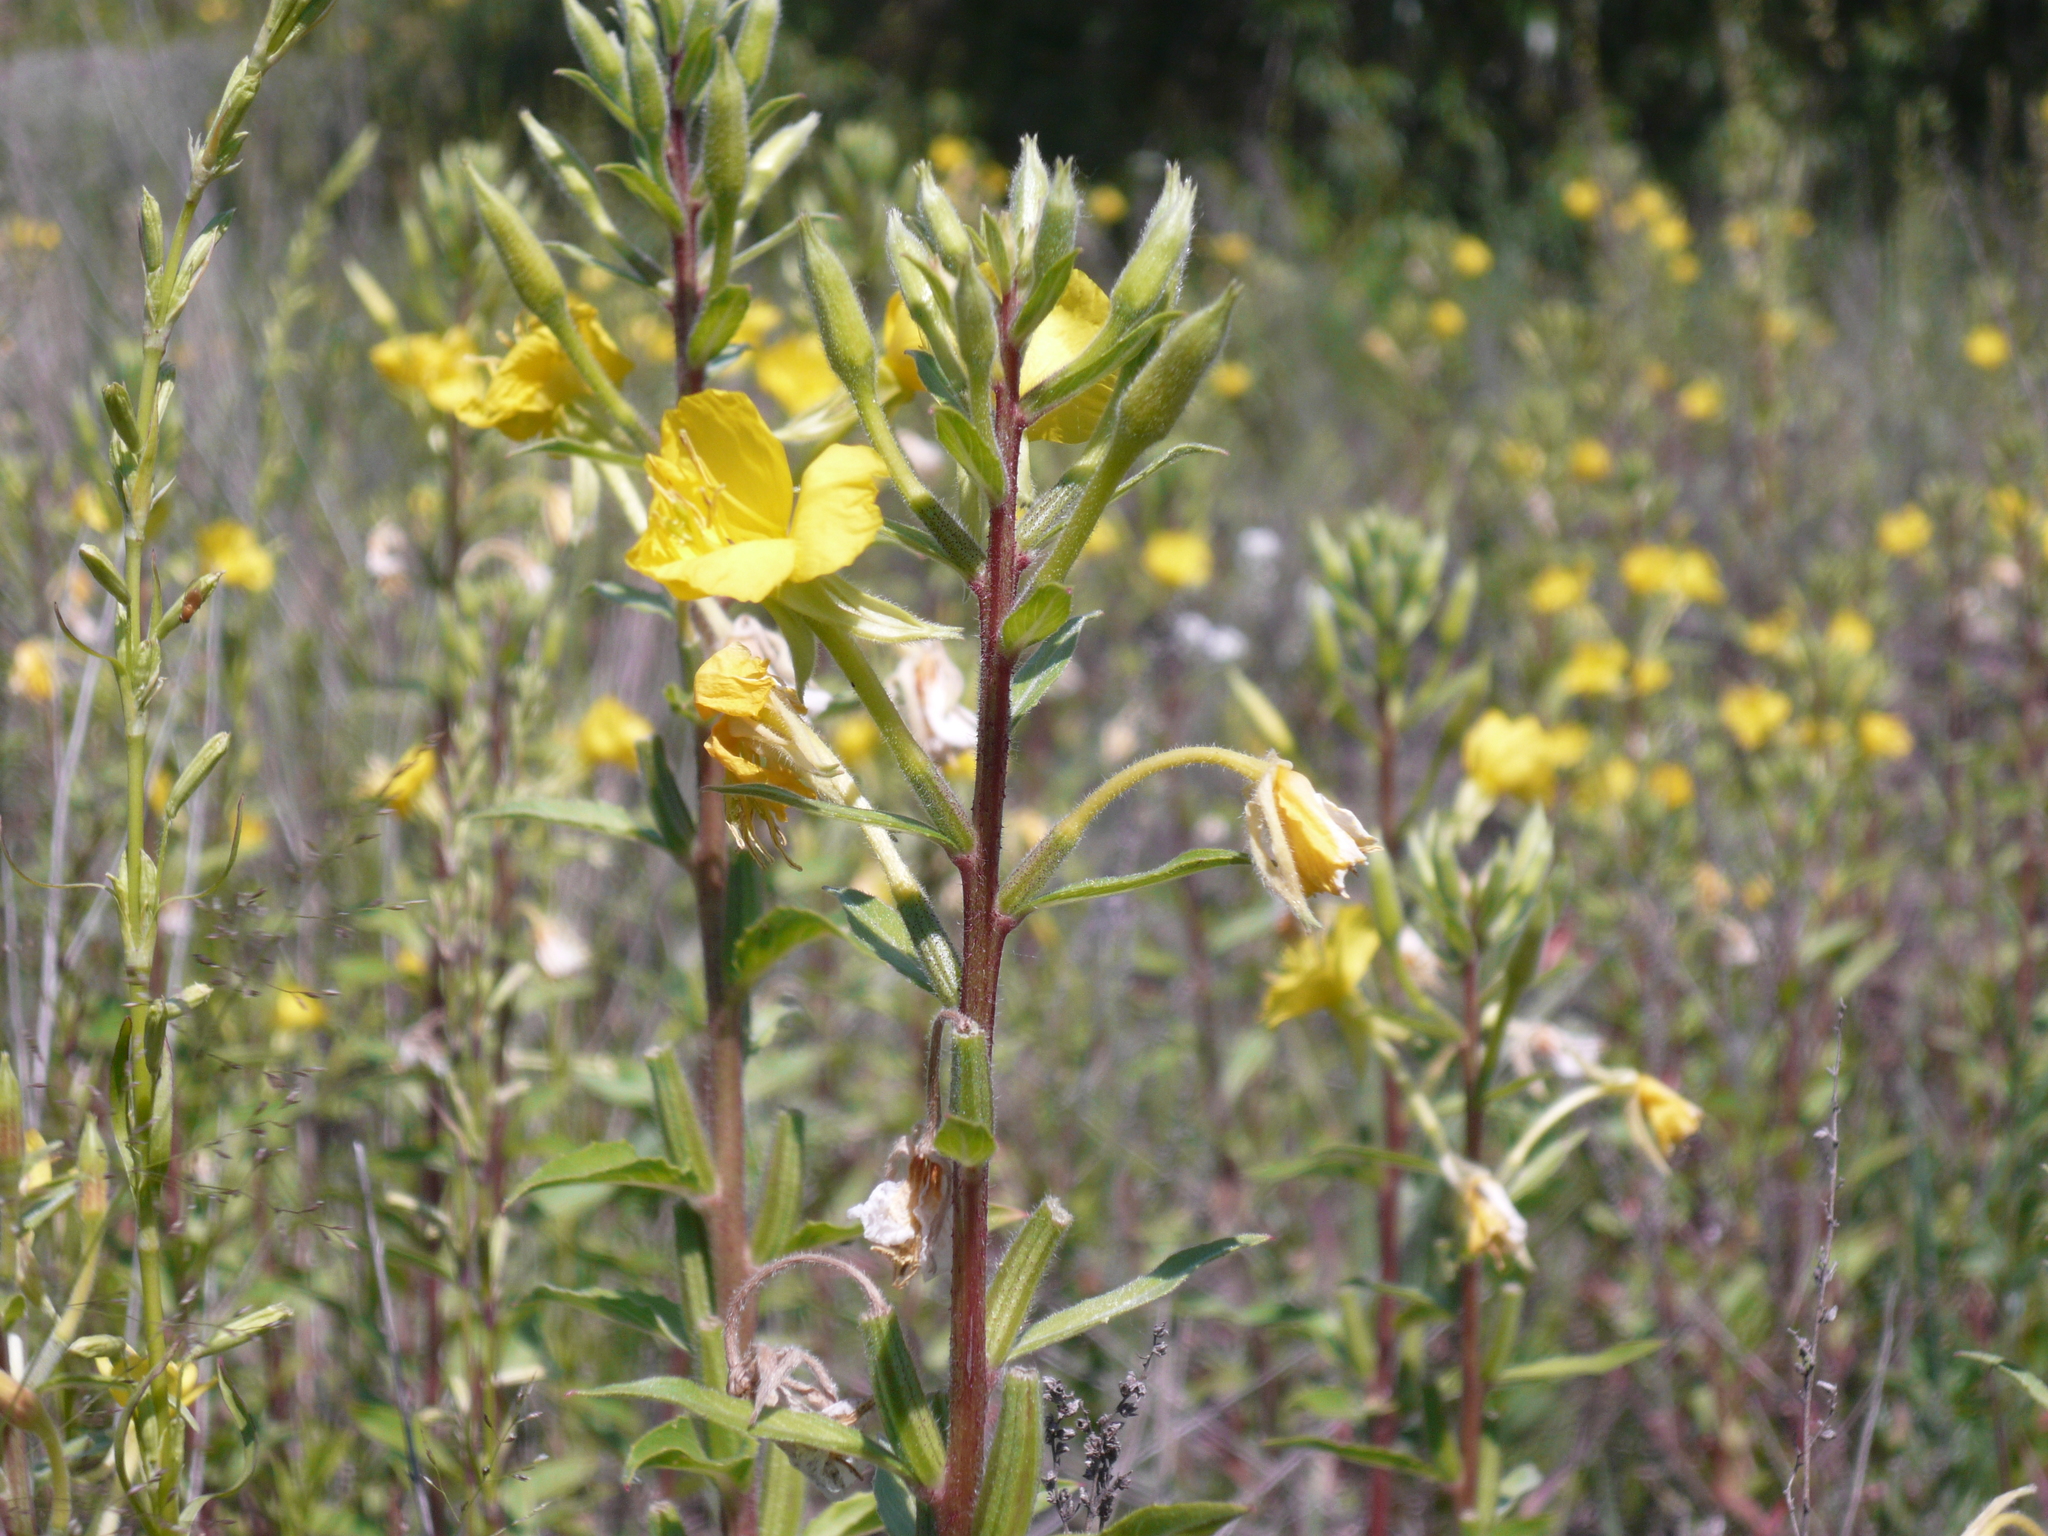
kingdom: Plantae
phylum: Tracheophyta
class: Magnoliopsida
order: Myrtales
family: Onagraceae
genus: Oenothera
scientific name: Oenothera rubricaulis
